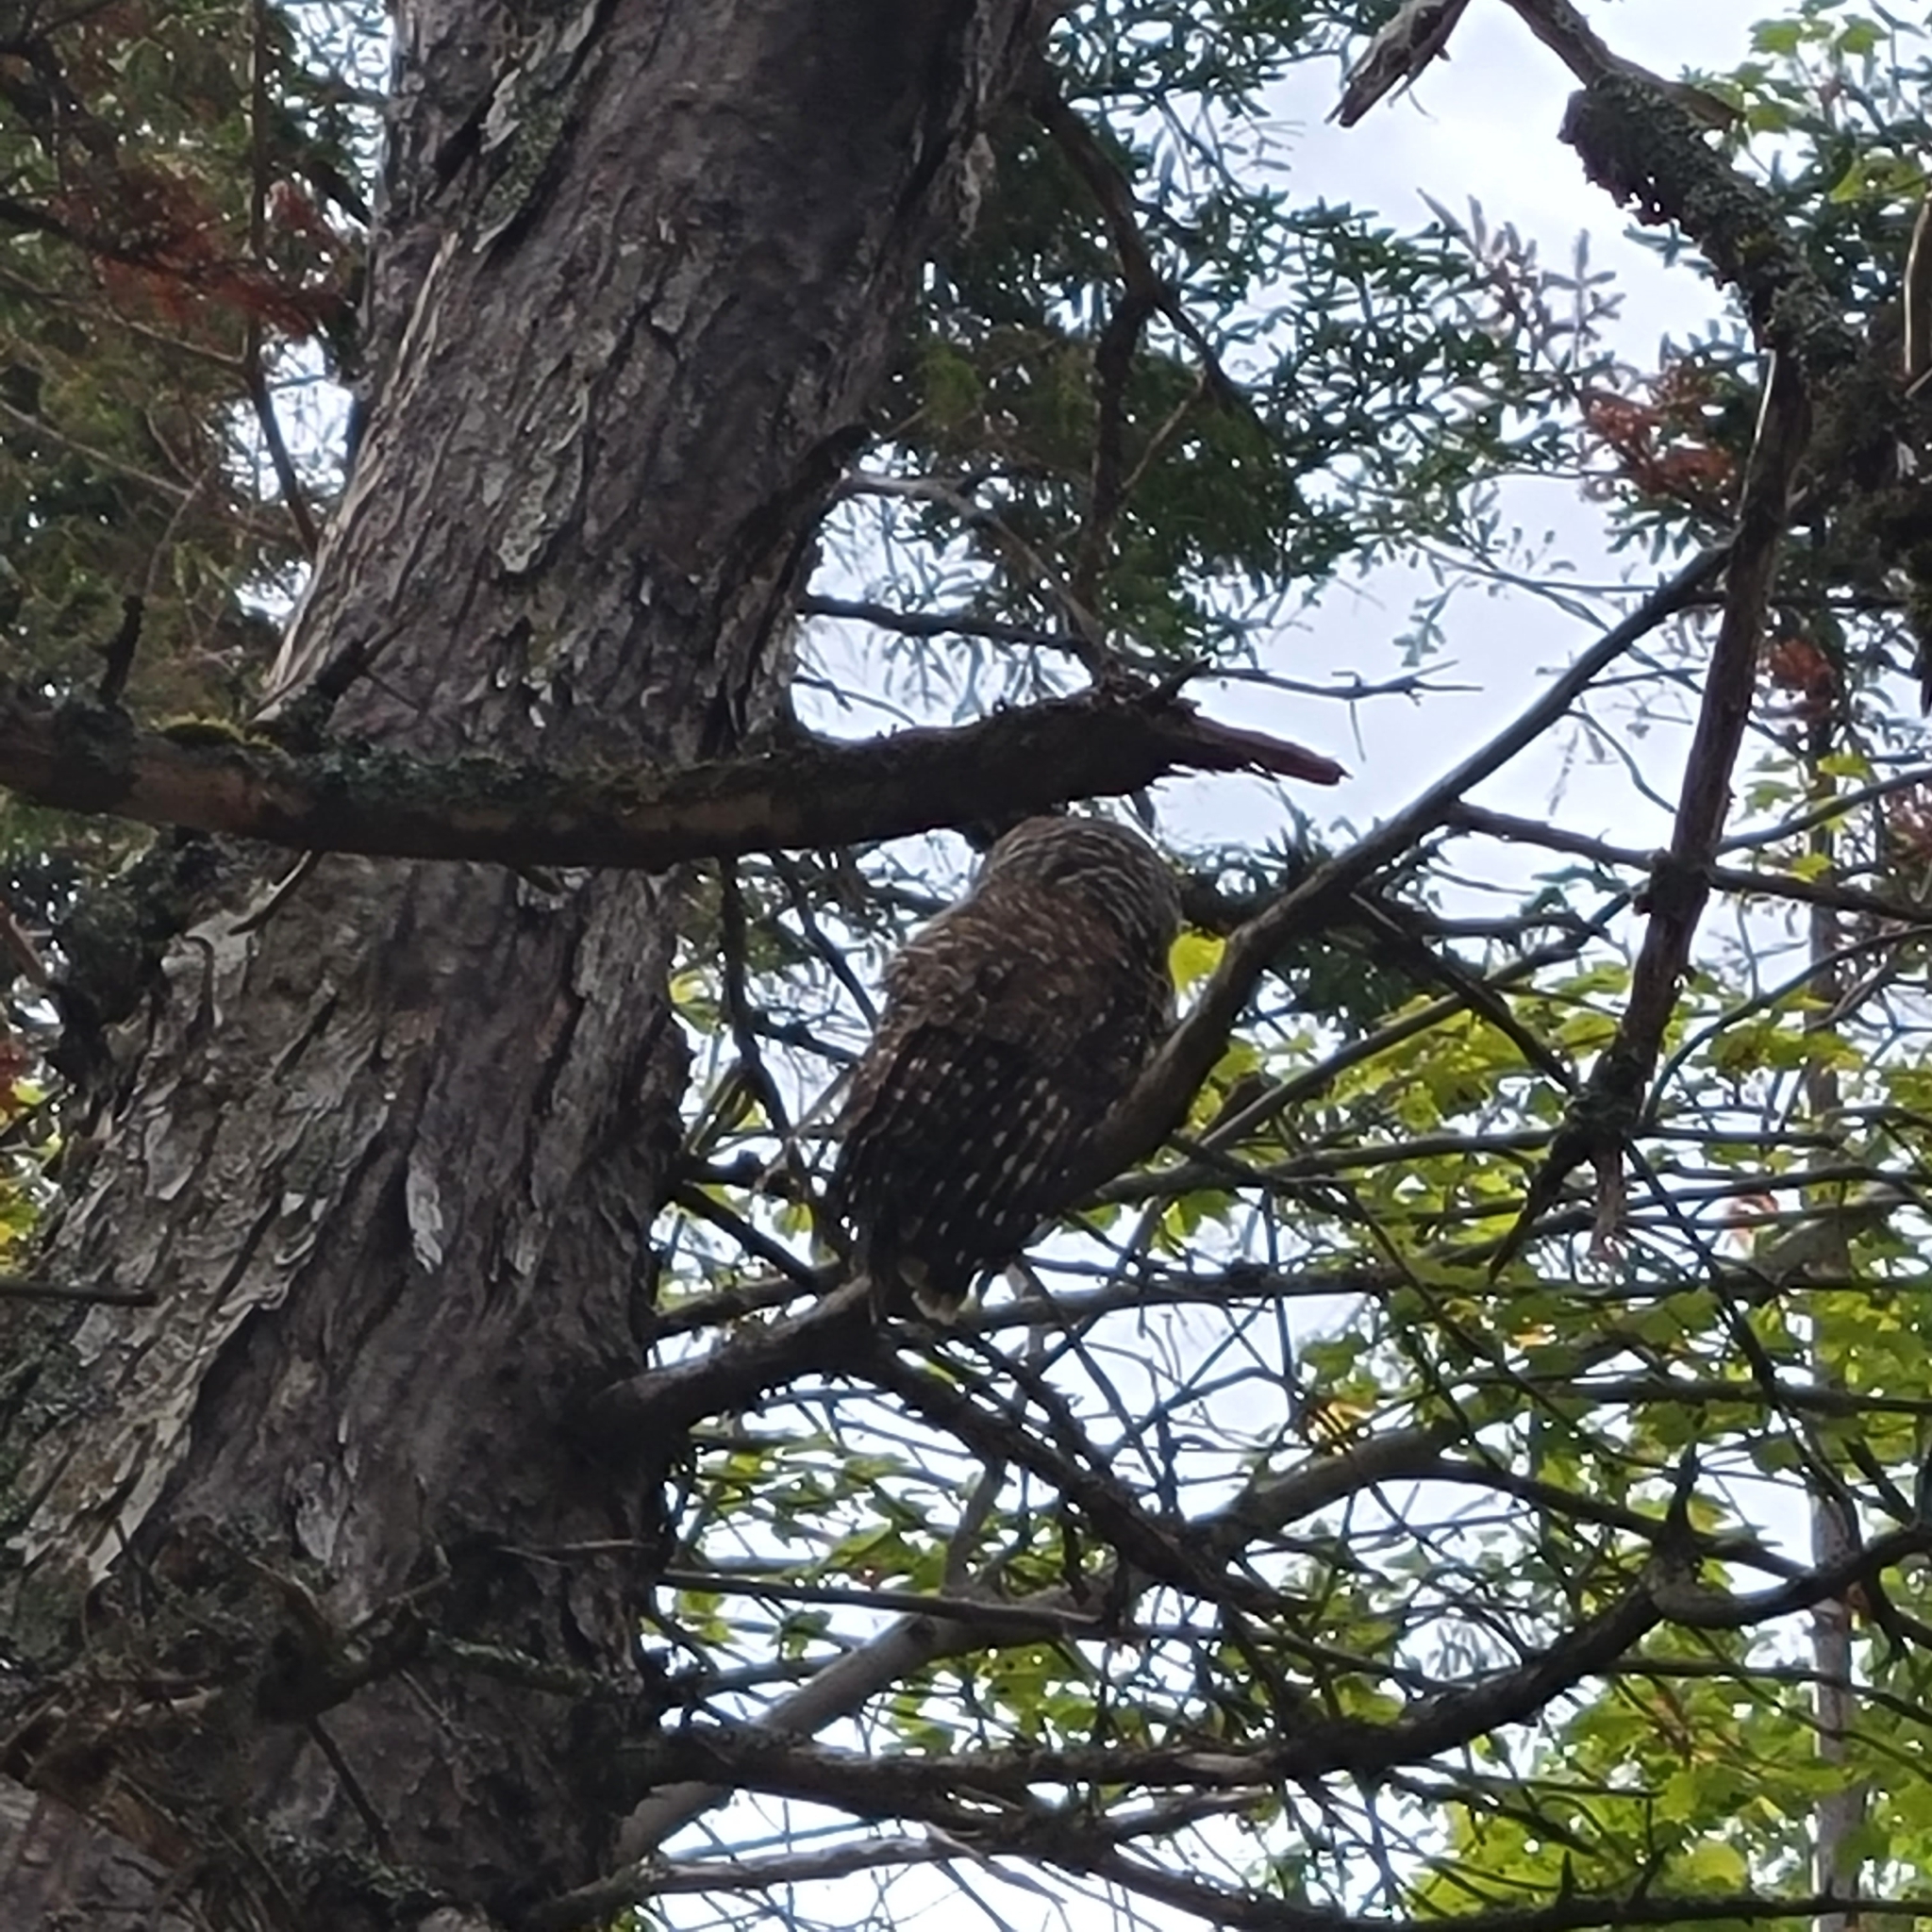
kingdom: Animalia
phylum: Chordata
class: Aves
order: Strigiformes
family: Strigidae
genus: Strix
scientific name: Strix varia
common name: Barred owl
